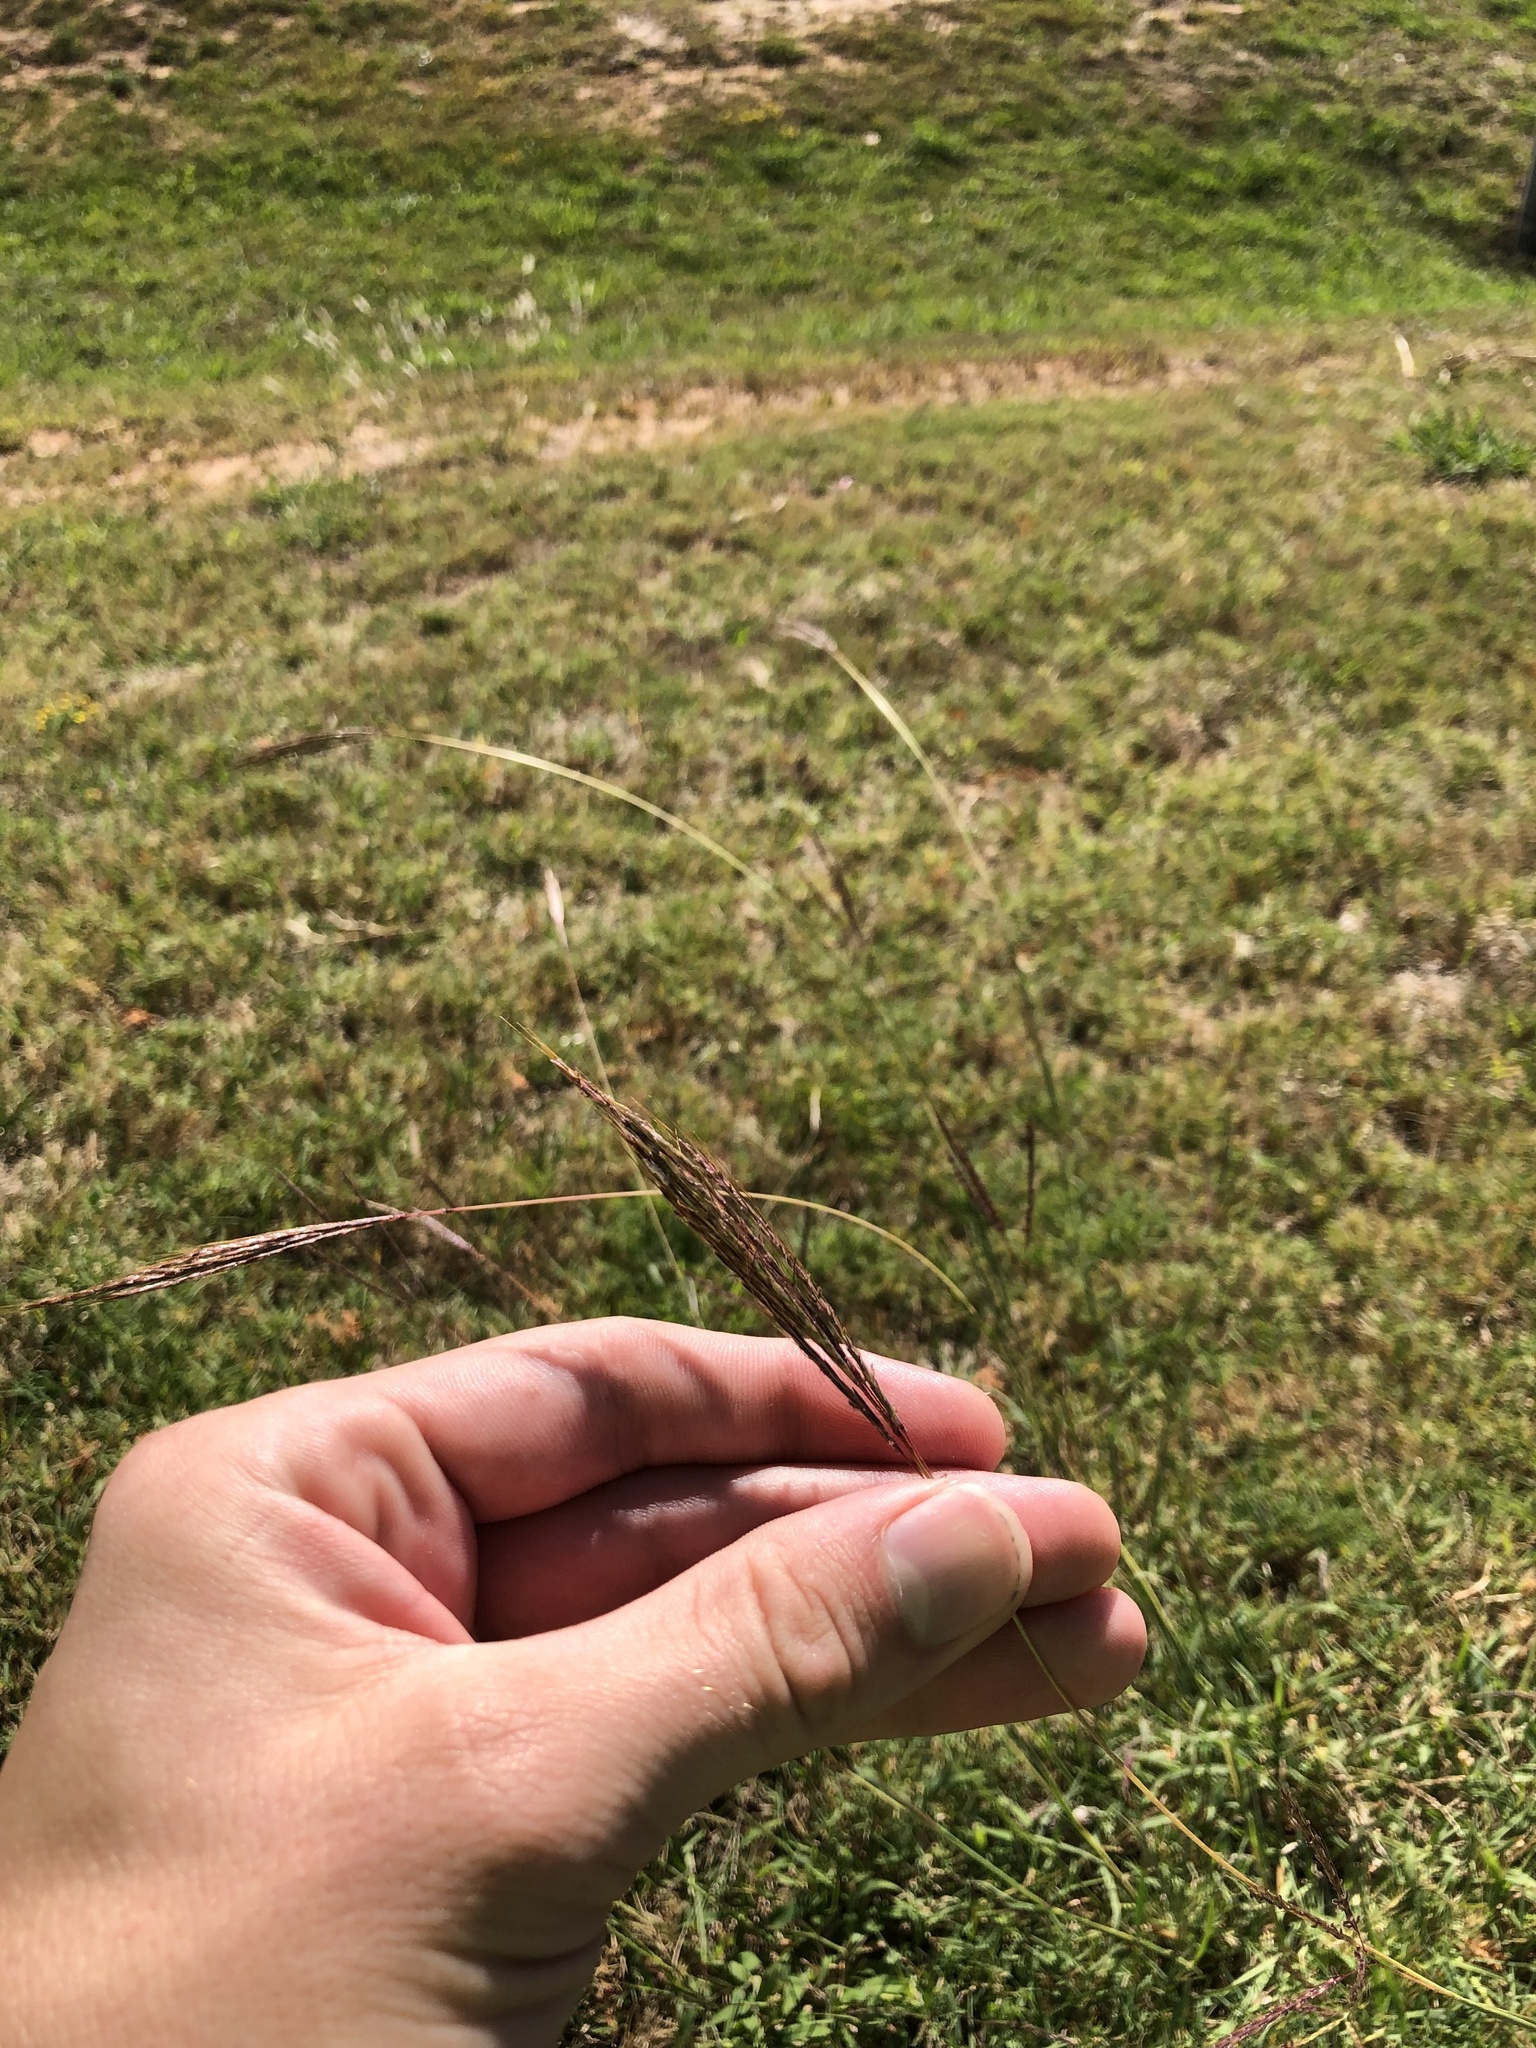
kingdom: Plantae
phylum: Tracheophyta
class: Liliopsida
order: Poales
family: Poaceae
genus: Bothriochloa
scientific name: Bothriochloa ischaemum
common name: Yellow bluestem
